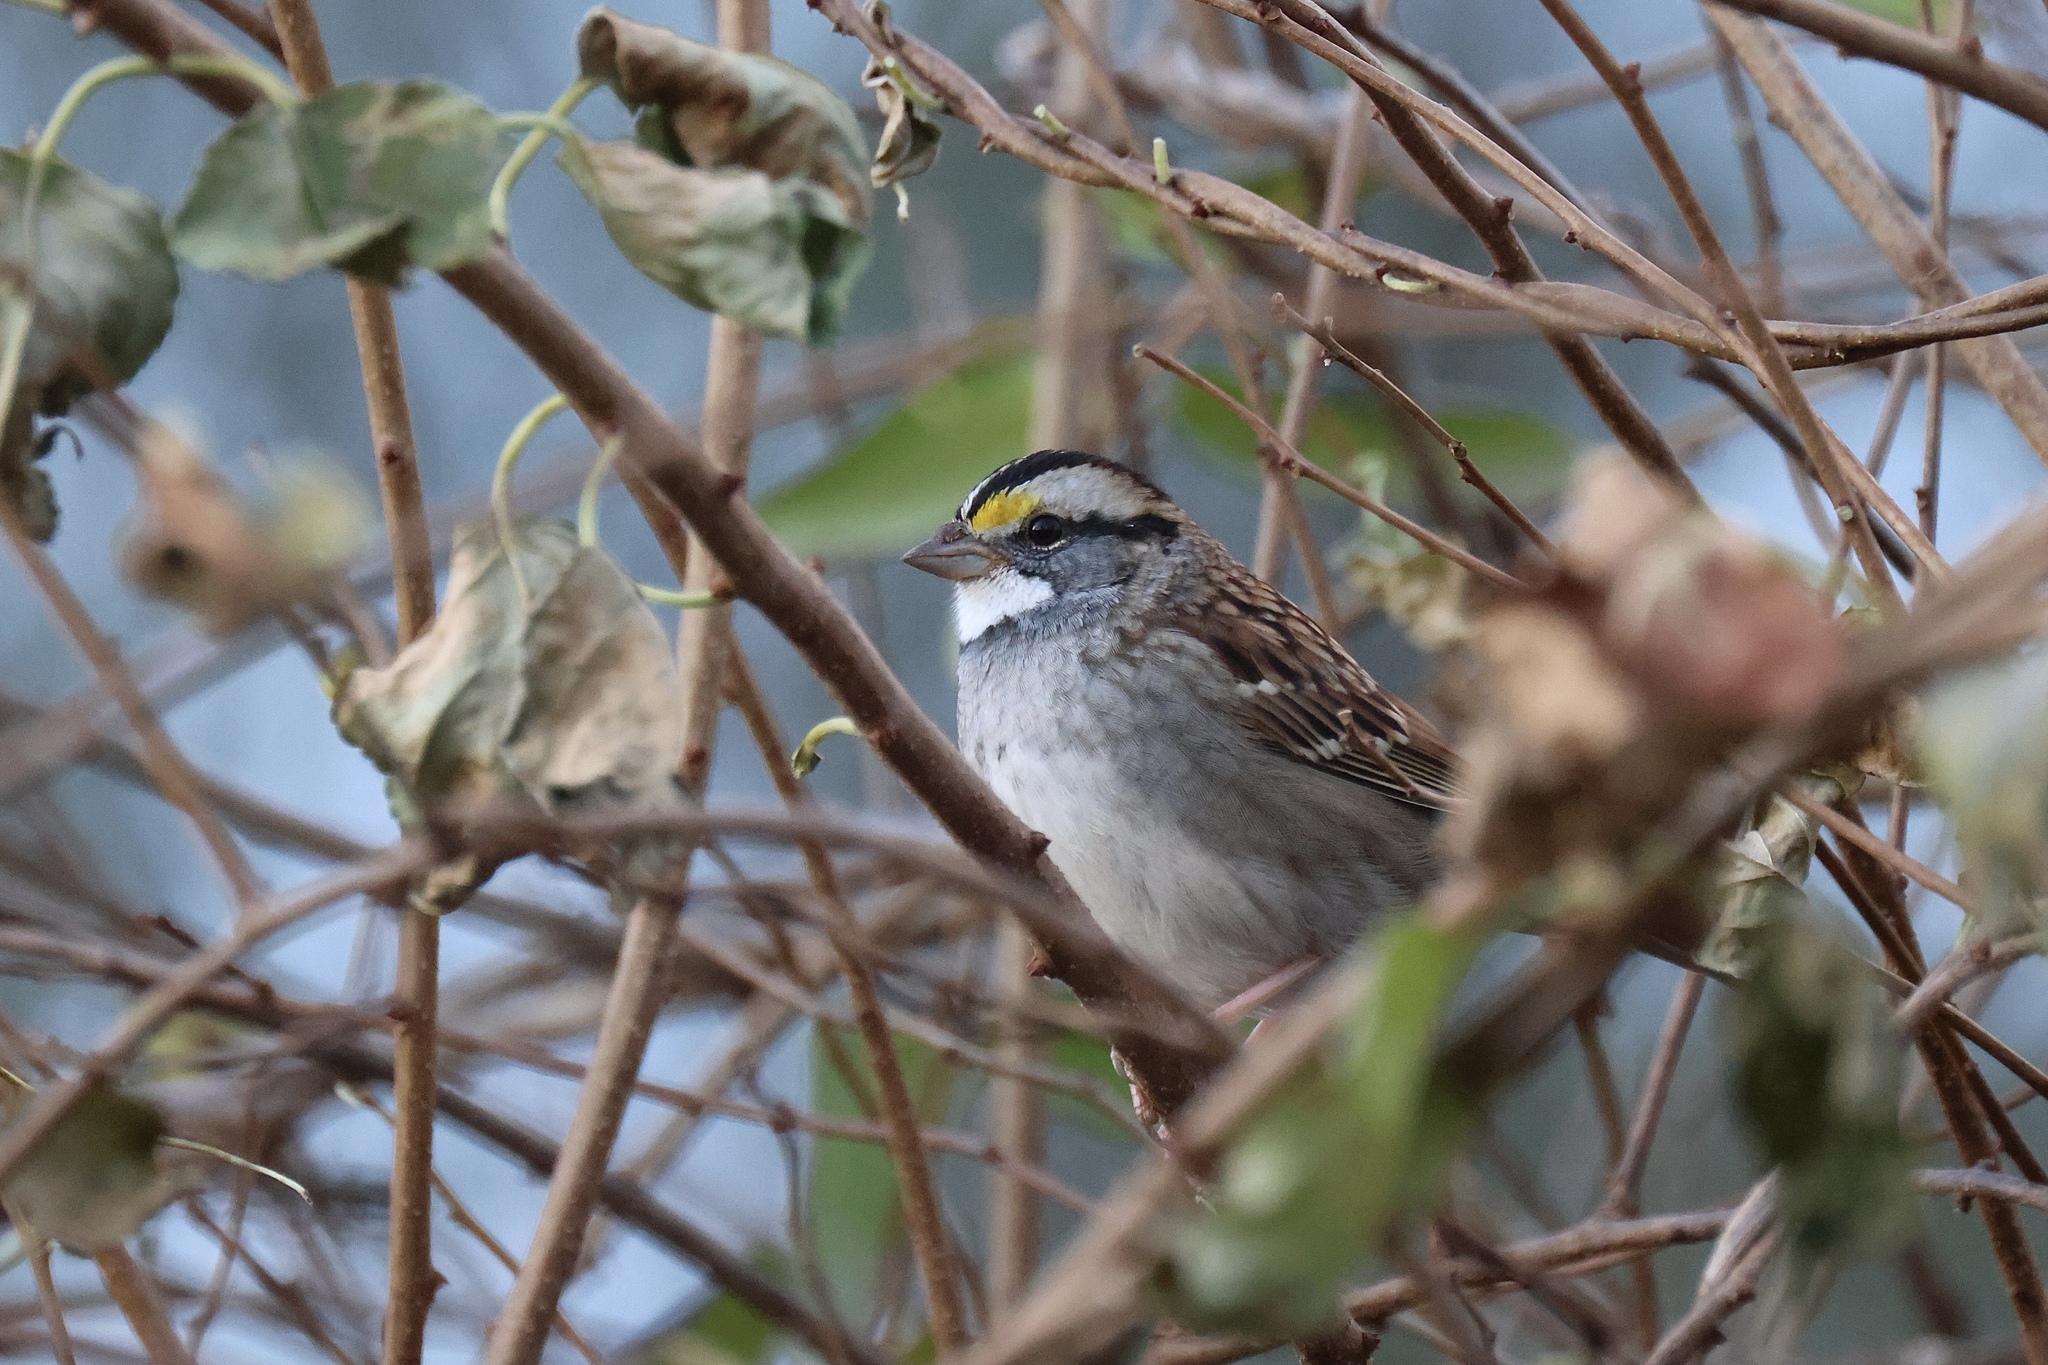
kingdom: Animalia
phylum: Chordata
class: Aves
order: Passeriformes
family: Passerellidae
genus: Zonotrichia
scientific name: Zonotrichia albicollis
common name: White-throated sparrow
